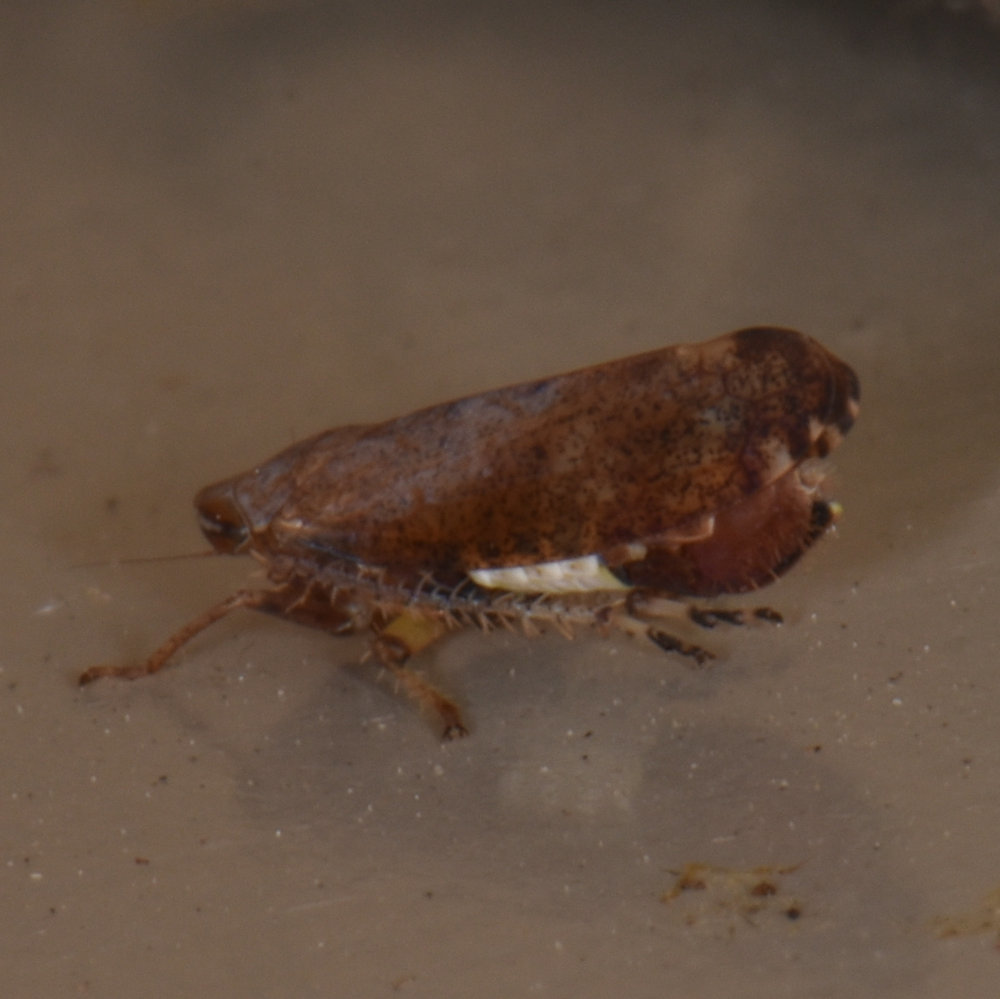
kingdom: Animalia
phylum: Arthropoda
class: Insecta
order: Hemiptera
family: Cicadellidae
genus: Fieberiella
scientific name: Fieberiella florii
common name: Flor’s leafhopper
